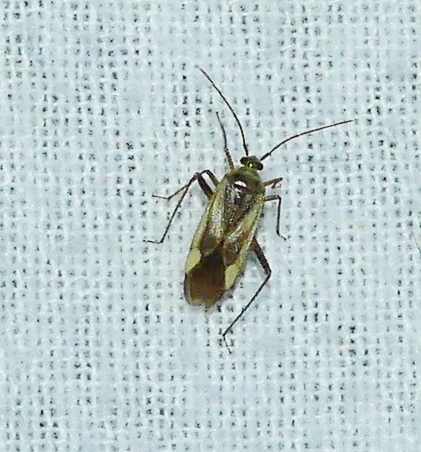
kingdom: Animalia
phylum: Arthropoda
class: Insecta
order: Hemiptera
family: Miridae
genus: Adelphocoris
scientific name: Adelphocoris lineolatus
